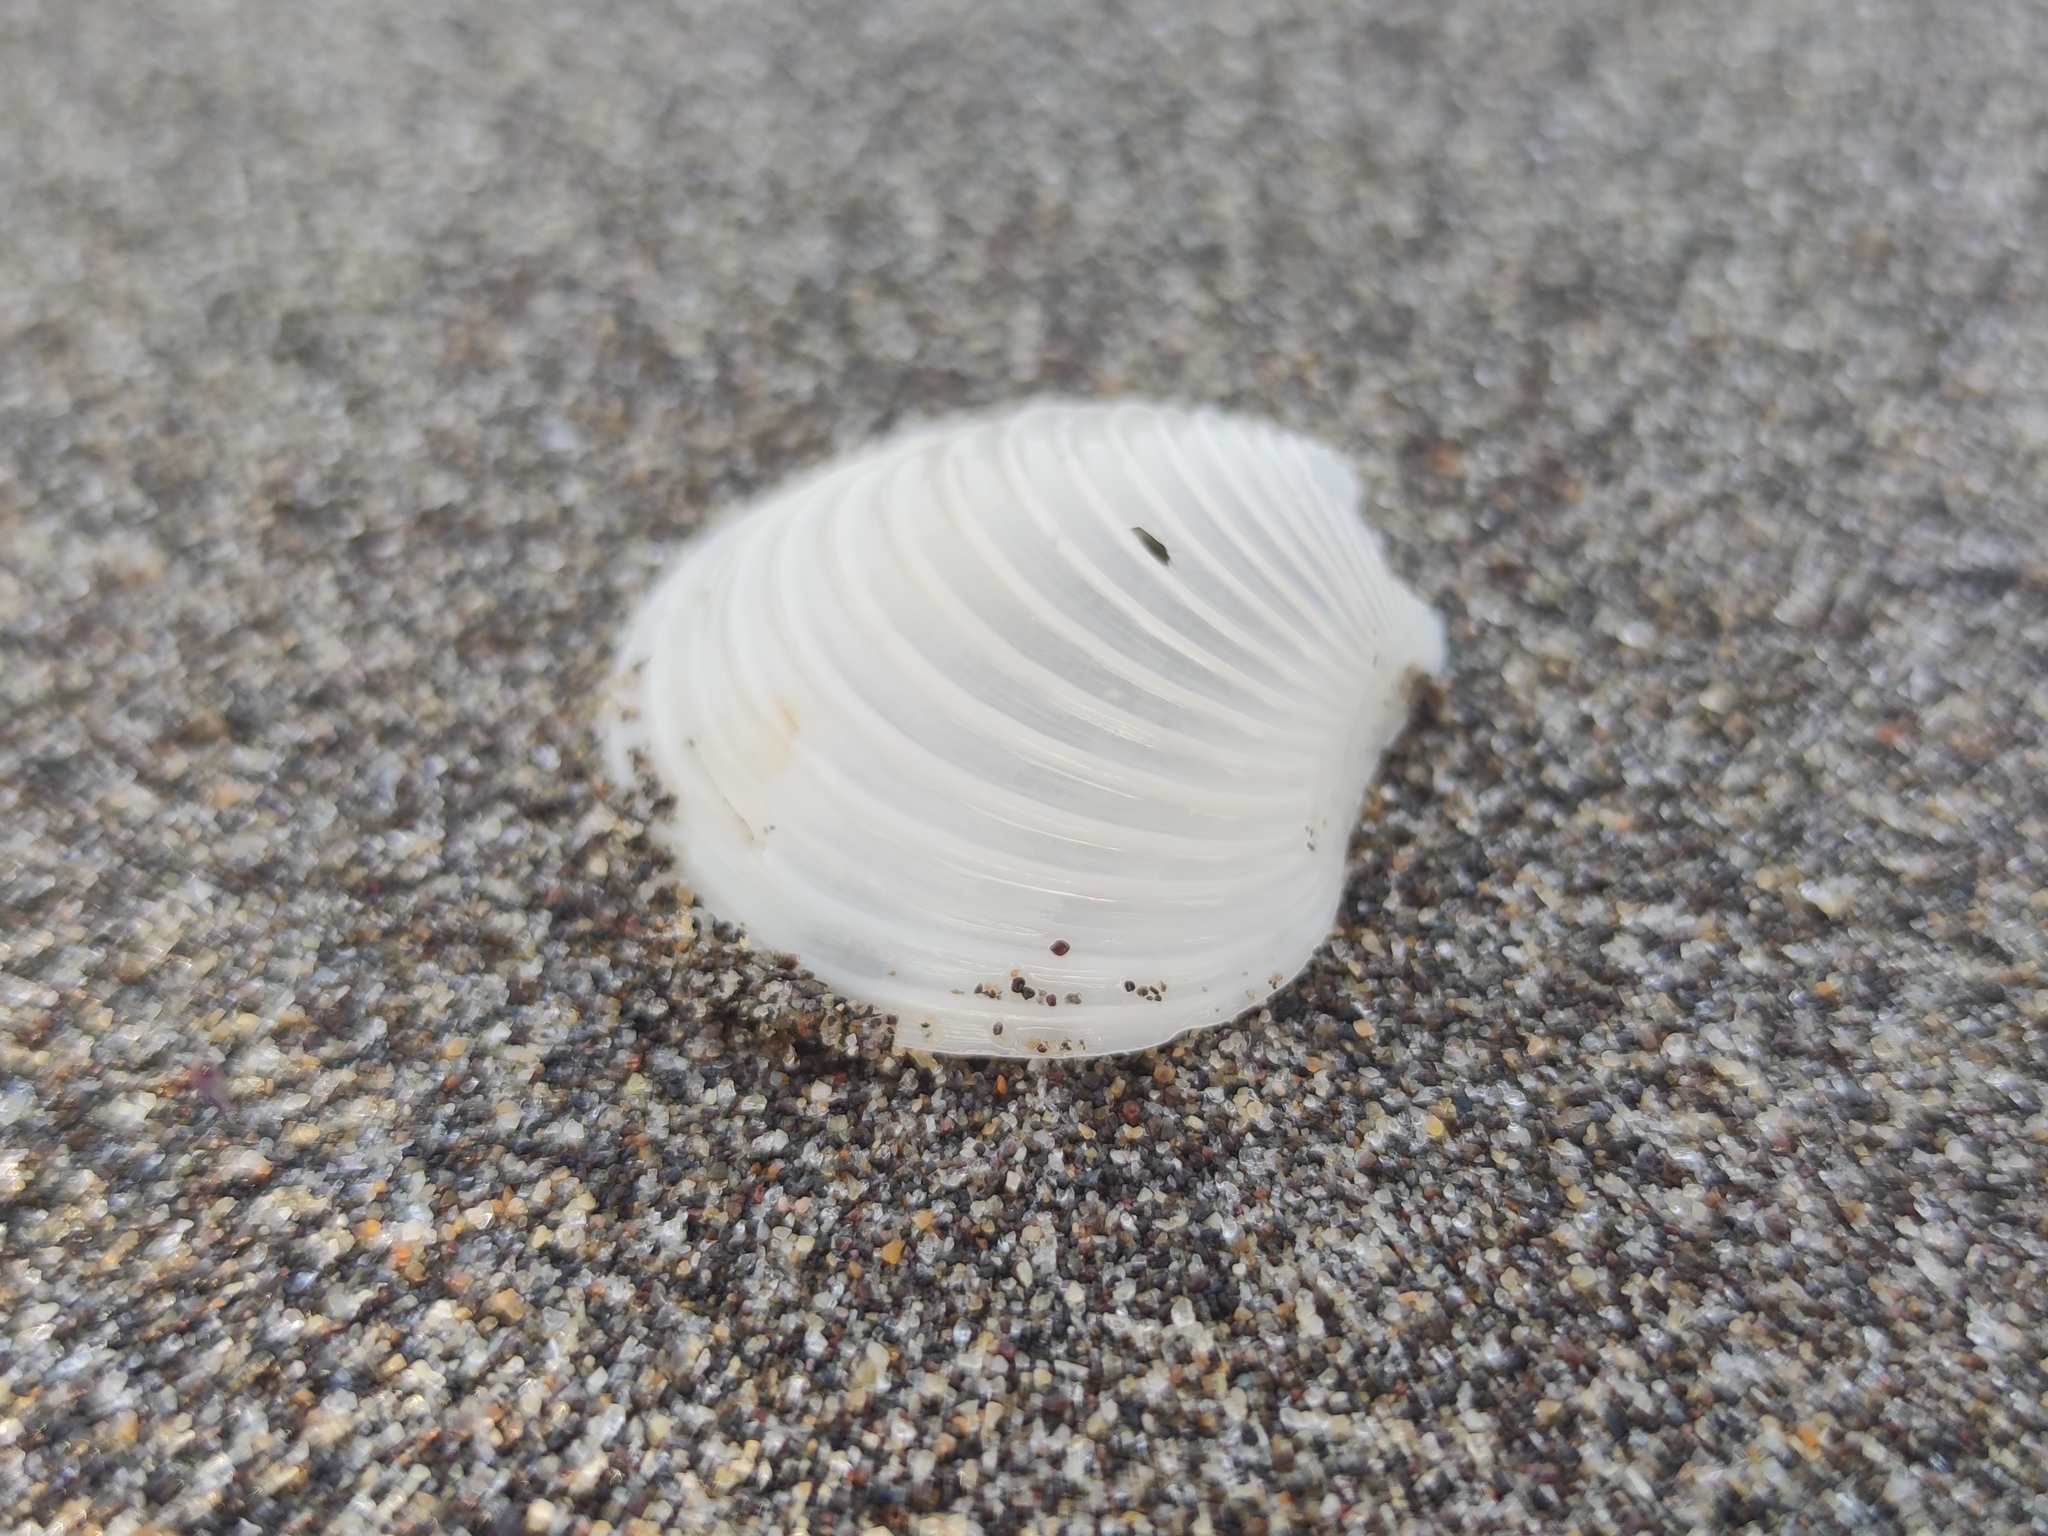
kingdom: Animalia
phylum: Mollusca
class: Bivalvia
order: Venerida
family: Mactridae
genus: Harvella
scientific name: Harvella elegans
